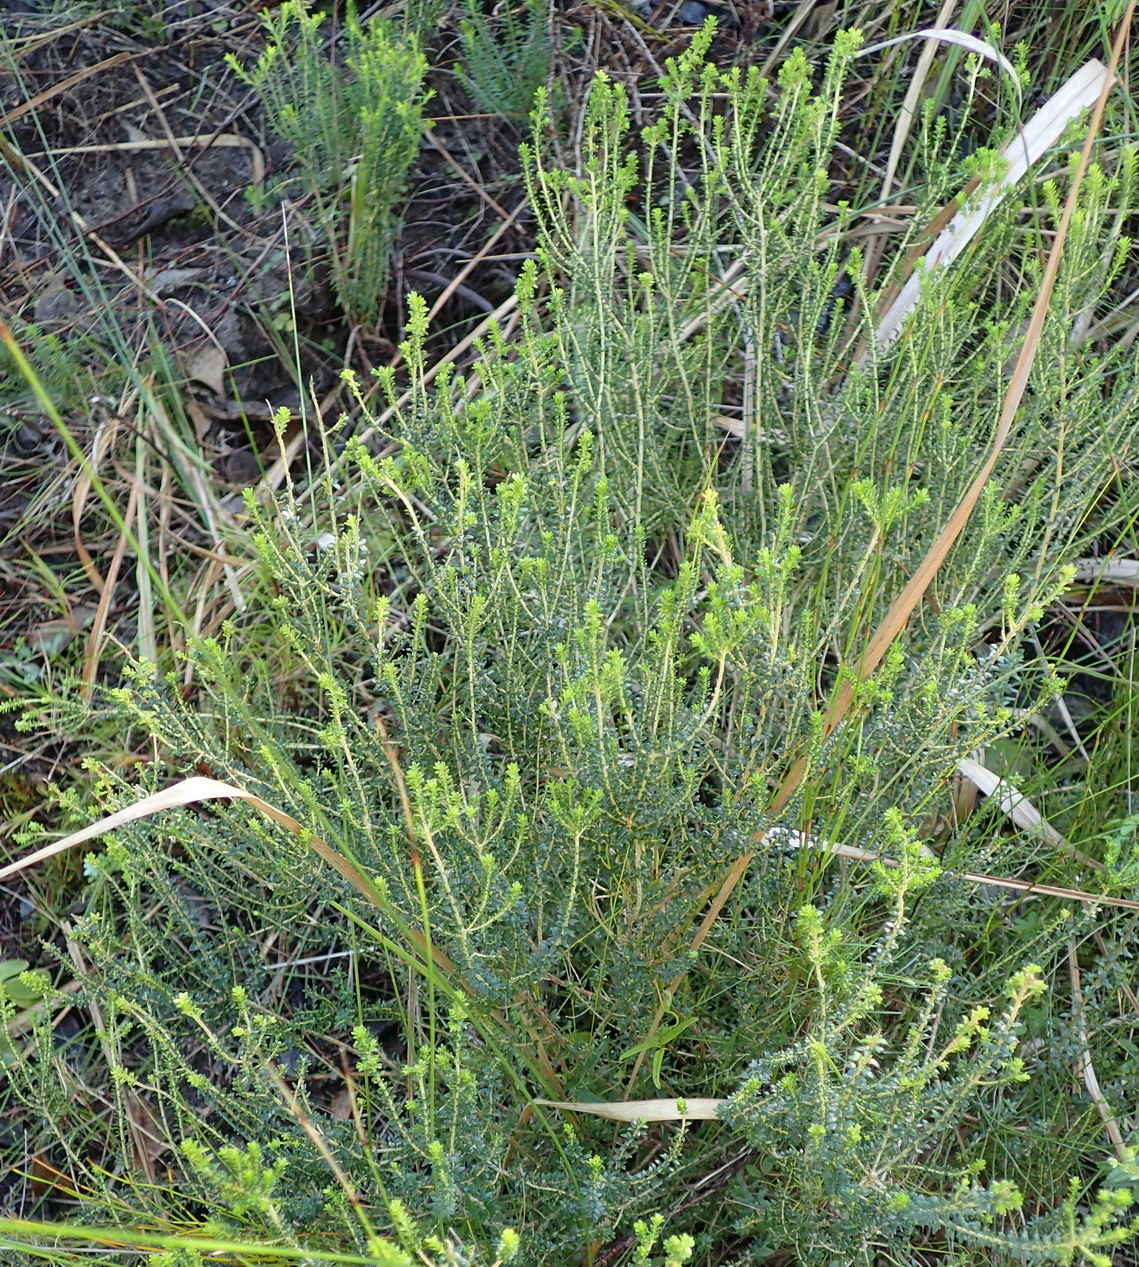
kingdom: Plantae
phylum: Tracheophyta
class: Magnoliopsida
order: Sapindales
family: Rutaceae
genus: Agathosma
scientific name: Agathosma capensis
